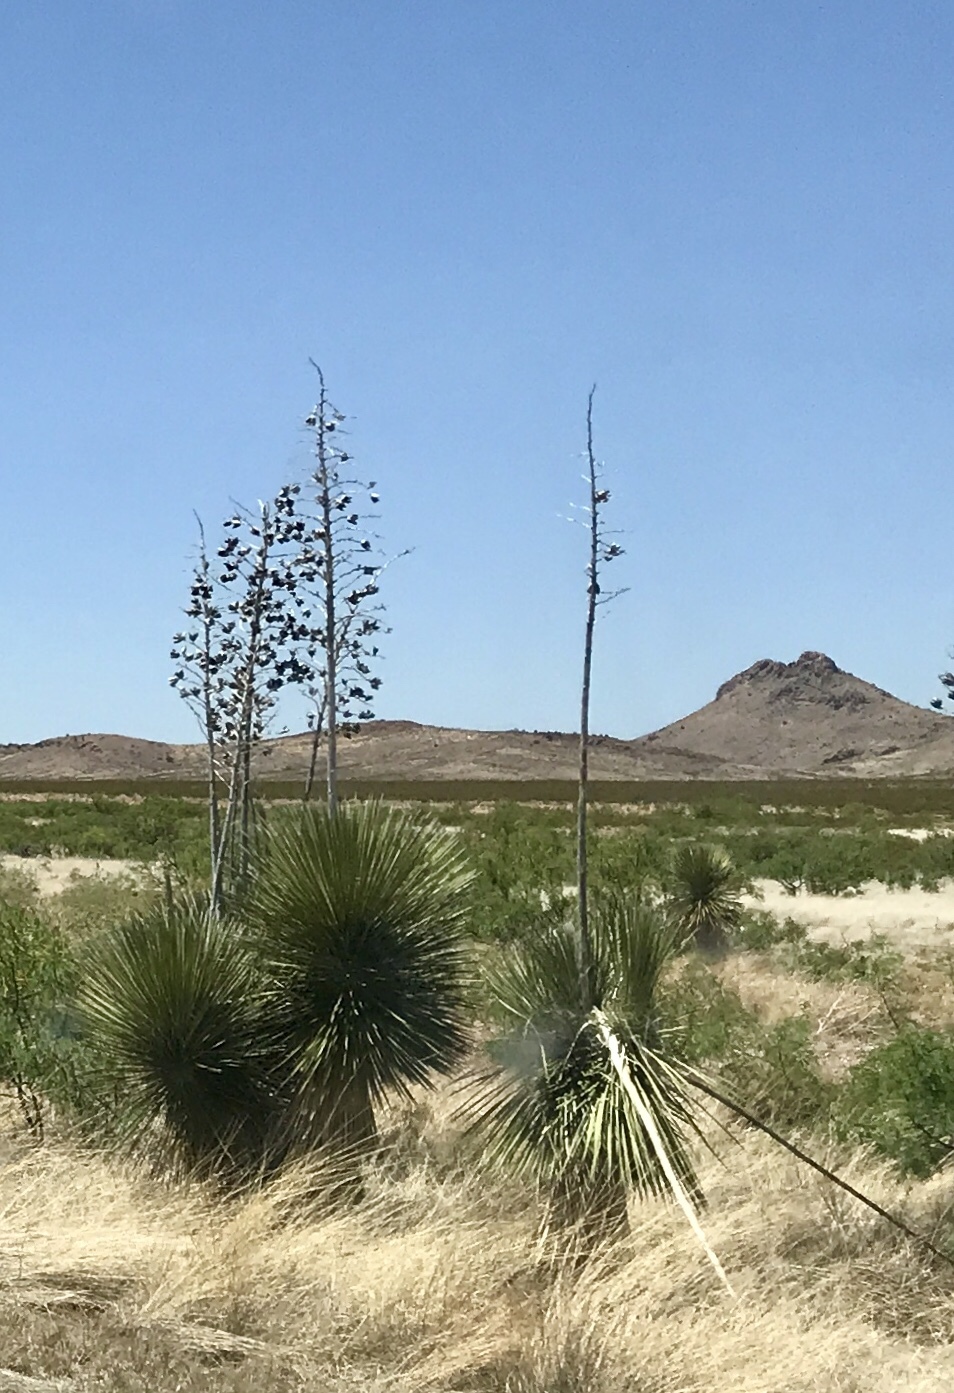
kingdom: Plantae
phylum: Tracheophyta
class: Liliopsida
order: Asparagales
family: Asparagaceae
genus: Yucca
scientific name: Yucca elata
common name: Palmella
